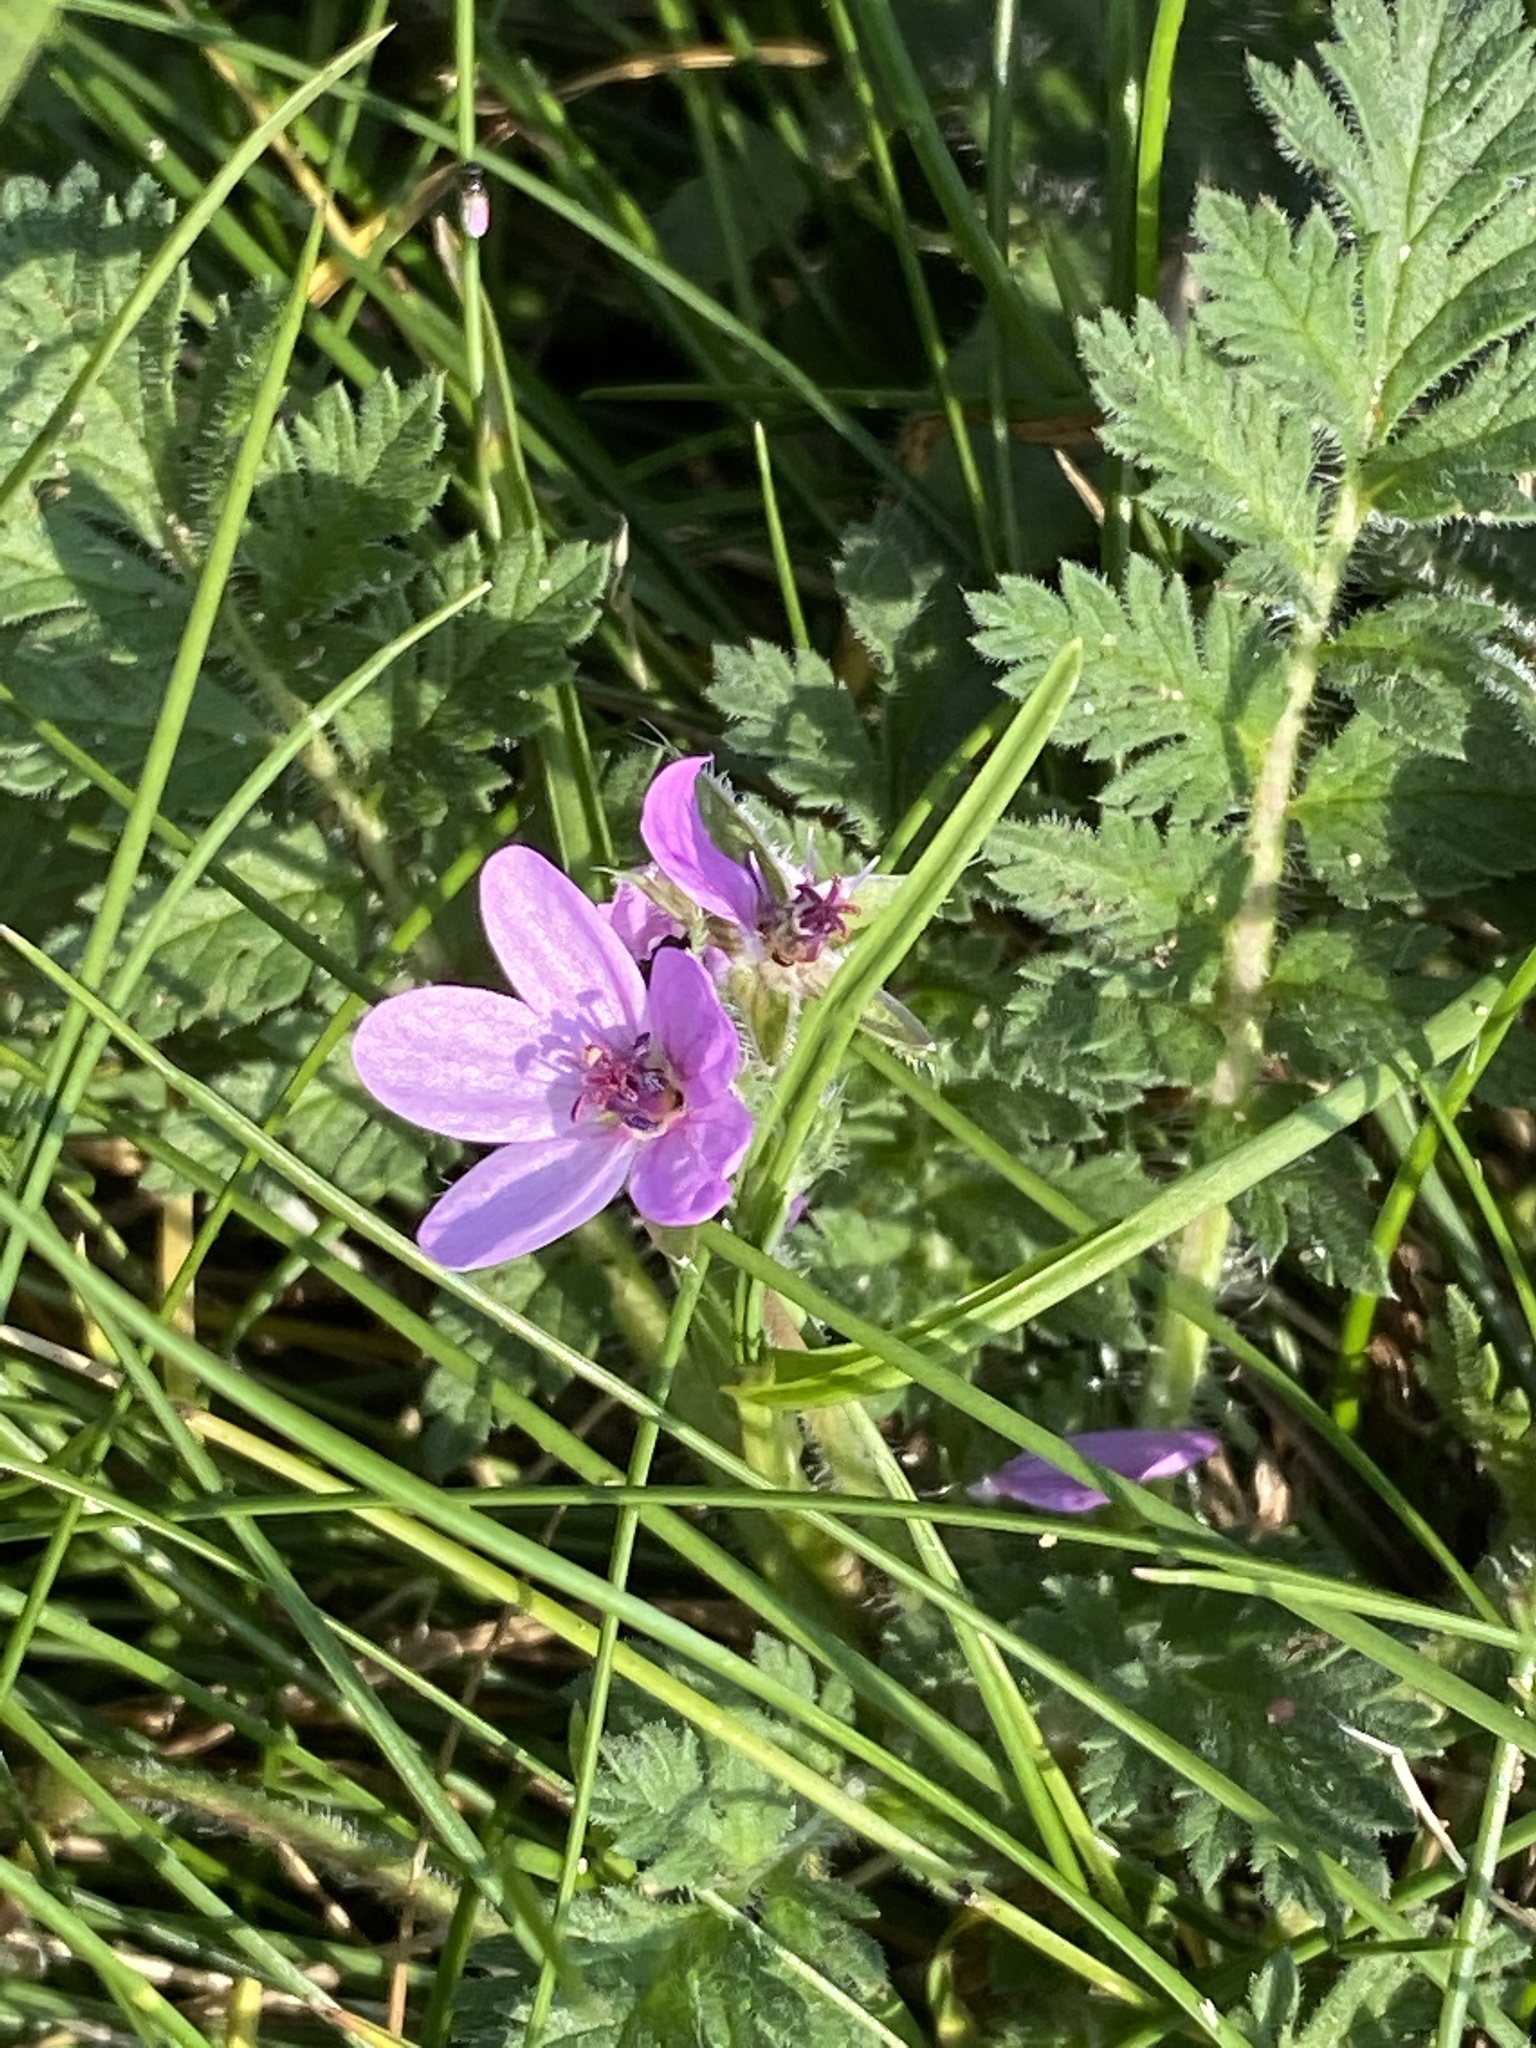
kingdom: Plantae
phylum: Tracheophyta
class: Magnoliopsida
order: Geraniales
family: Geraniaceae
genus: Erodium
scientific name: Erodium cicutarium
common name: Common stork's-bill
